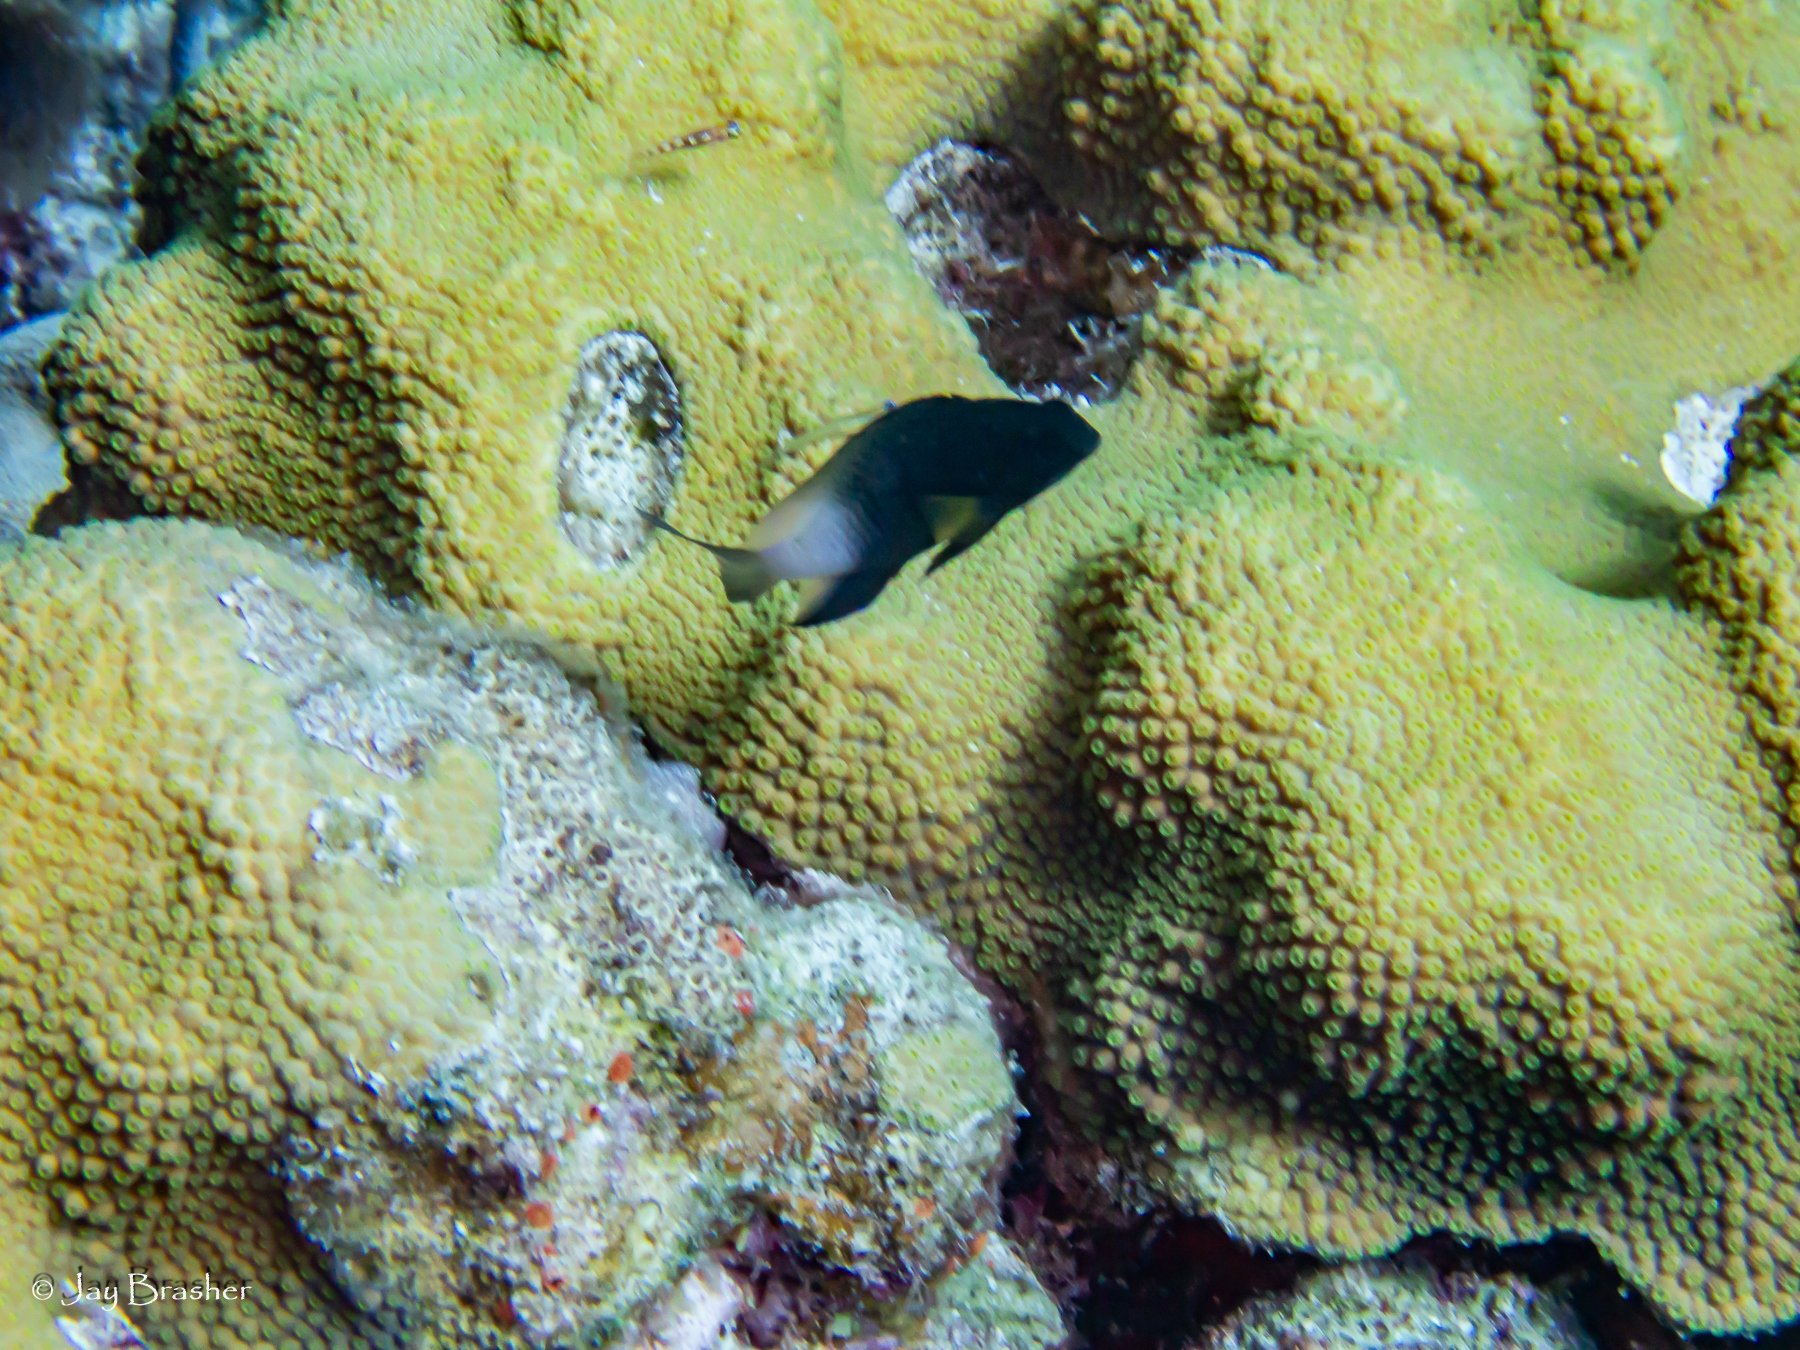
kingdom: Animalia
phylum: Chordata
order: Perciformes
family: Pomacentridae
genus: Stegastes
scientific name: Stegastes partitus
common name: Bicolor damselfish
